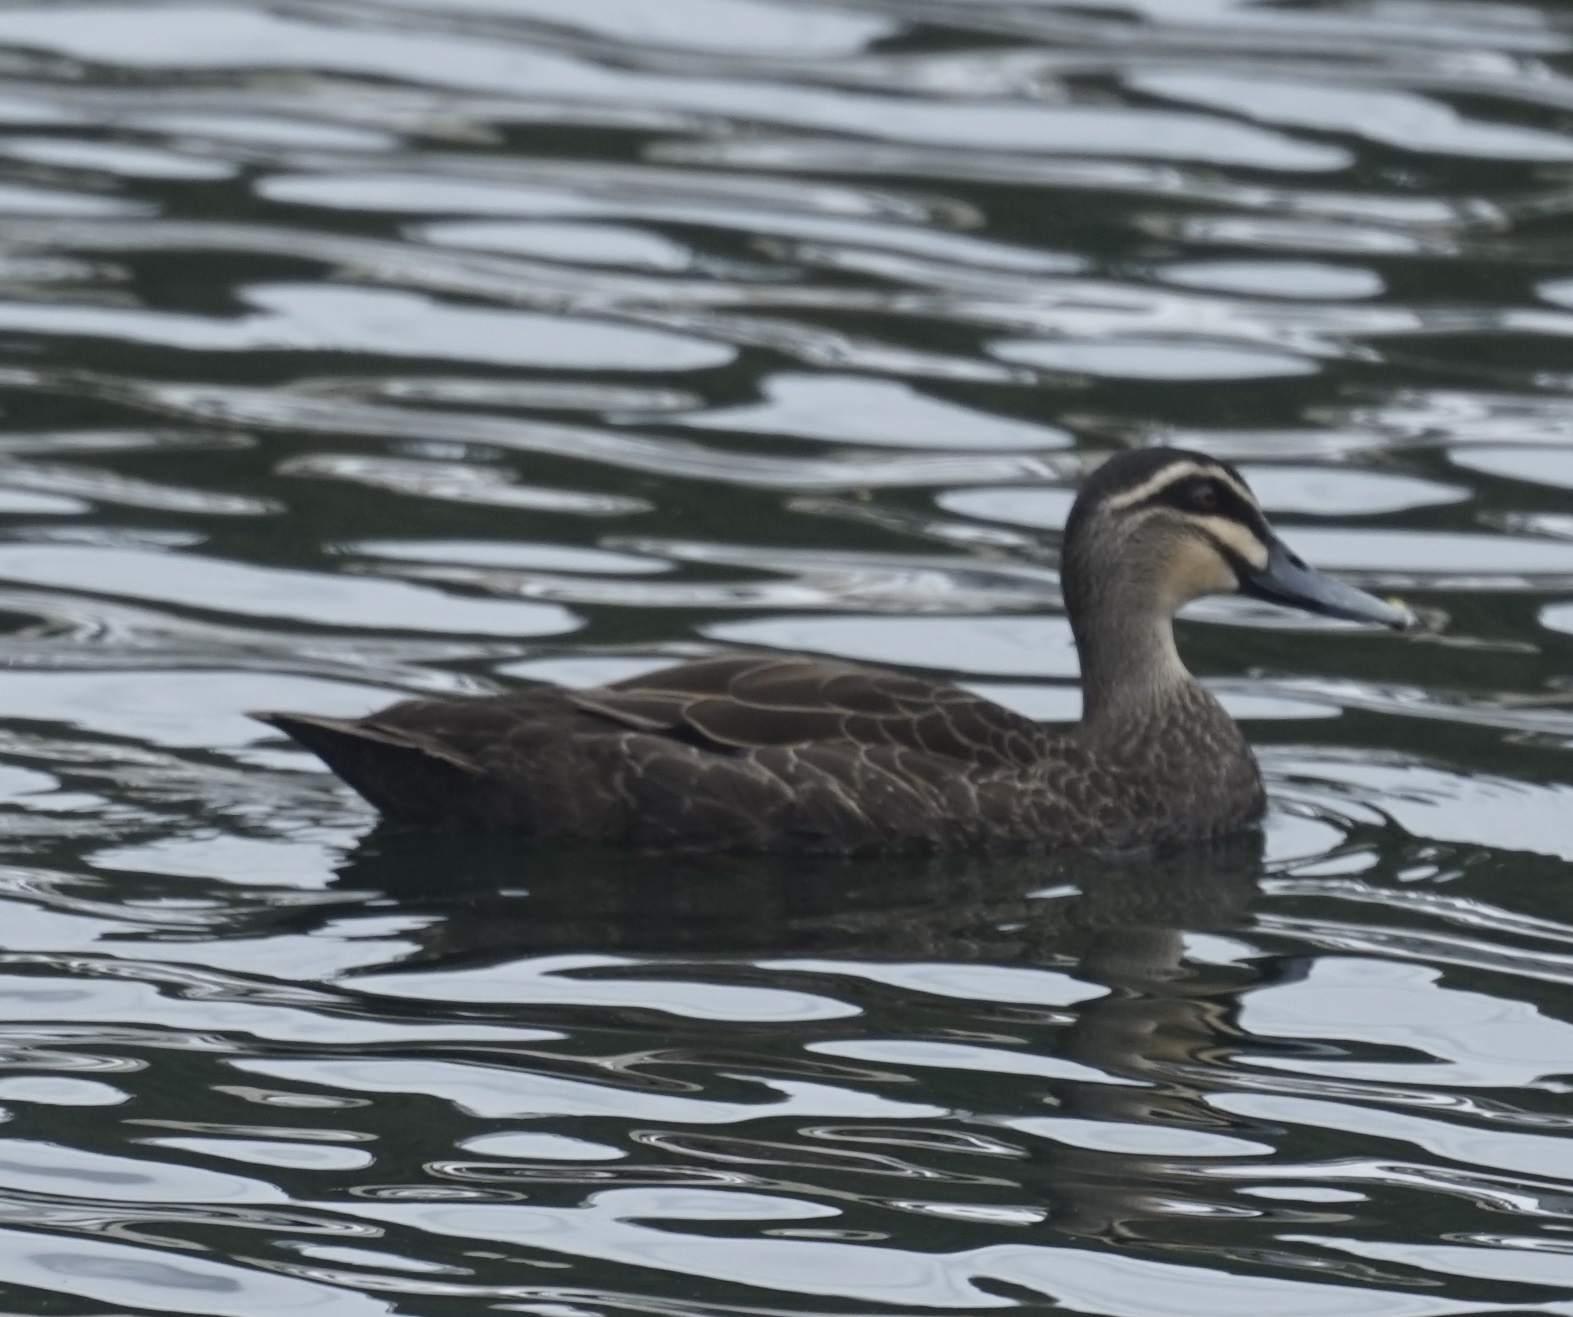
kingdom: Animalia
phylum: Chordata
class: Aves
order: Anseriformes
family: Anatidae
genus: Anas
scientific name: Anas superciliosa
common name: Pacific black duck
